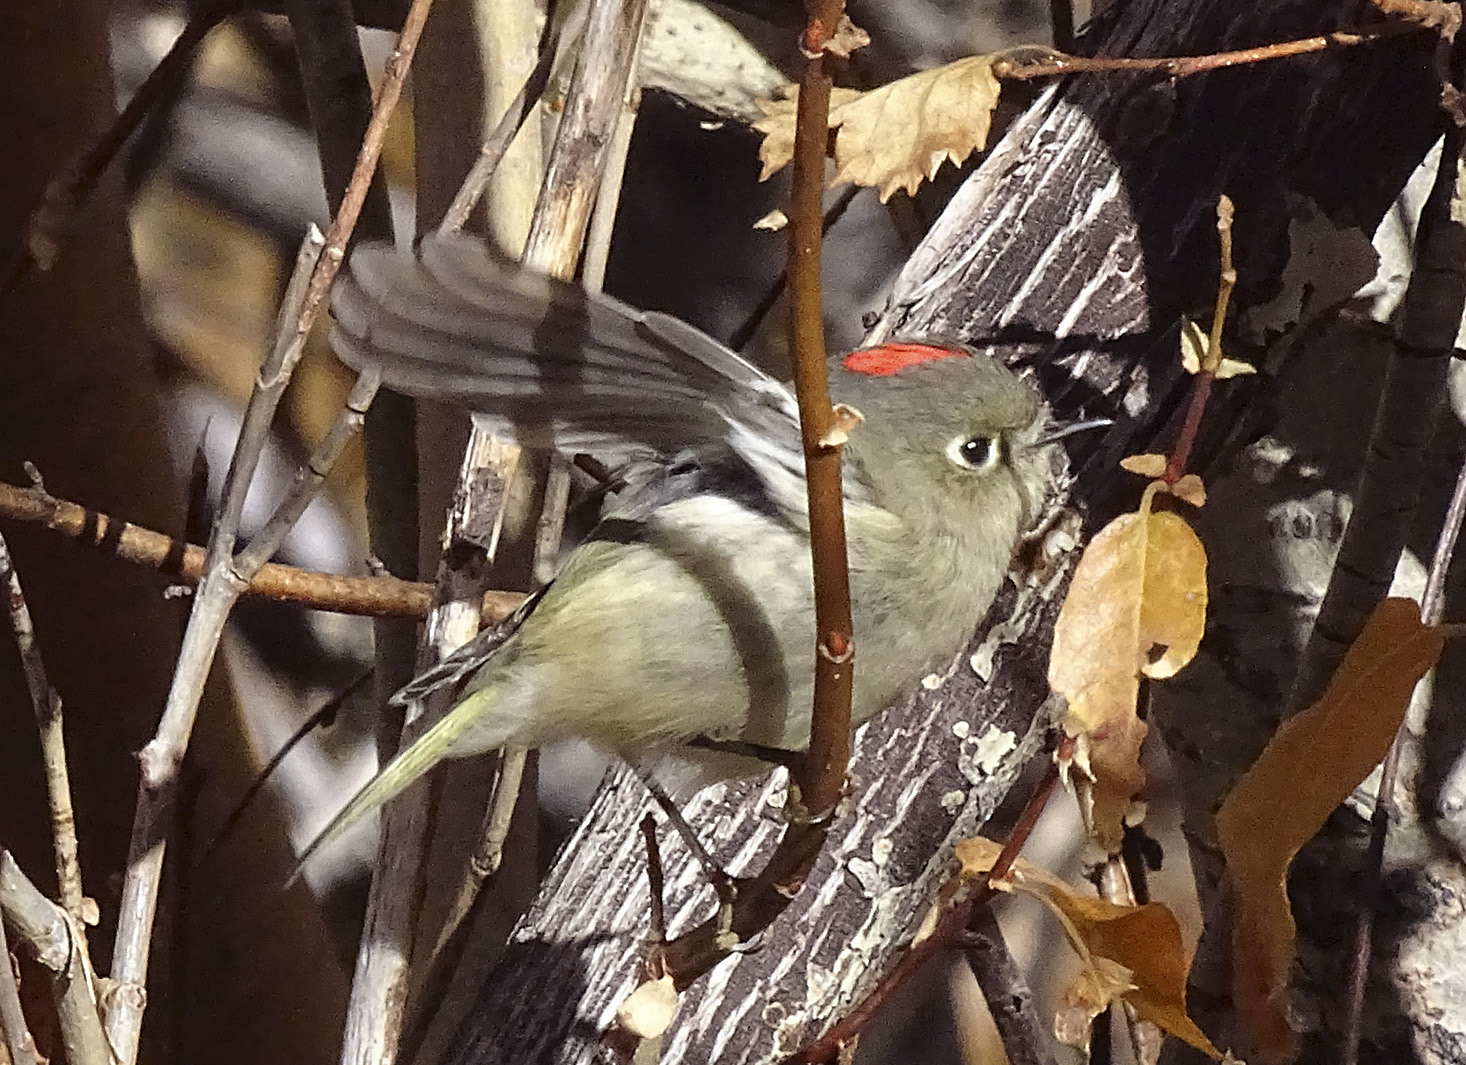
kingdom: Animalia
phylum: Chordata
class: Aves
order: Passeriformes
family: Regulidae
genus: Regulus
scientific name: Regulus calendula
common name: Ruby-crowned kinglet
